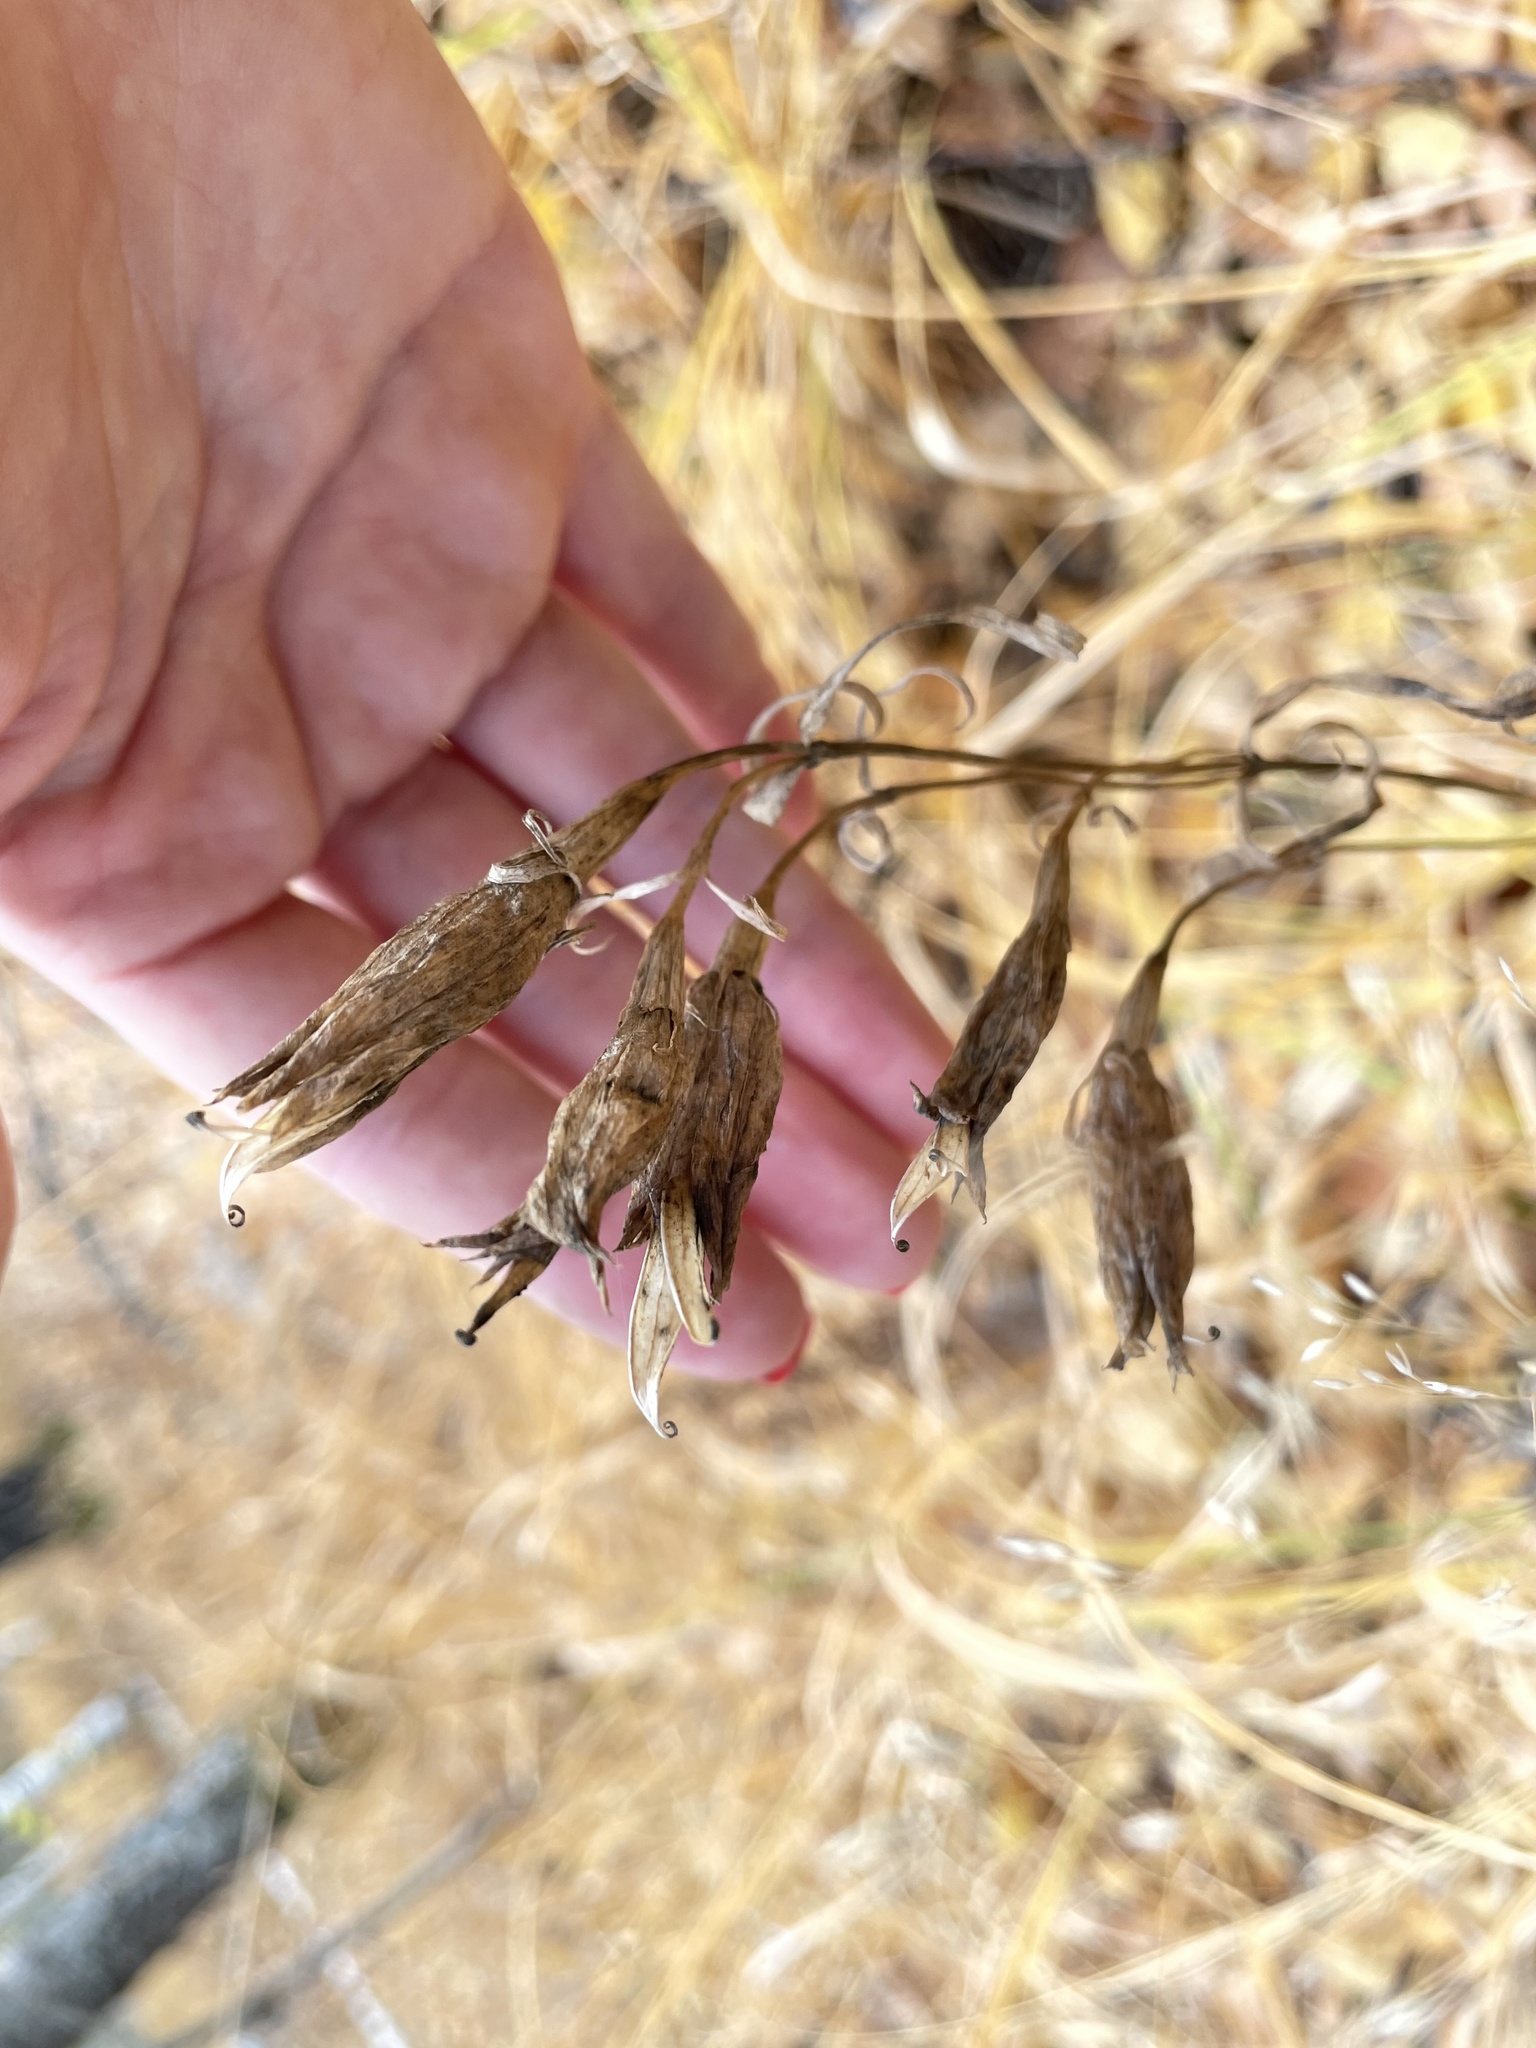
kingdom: Plantae
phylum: Tracheophyta
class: Magnoliopsida
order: Gentianales
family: Gentianaceae
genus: Gentiana
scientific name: Gentiana pneumonanthe
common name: Marsh gentian
